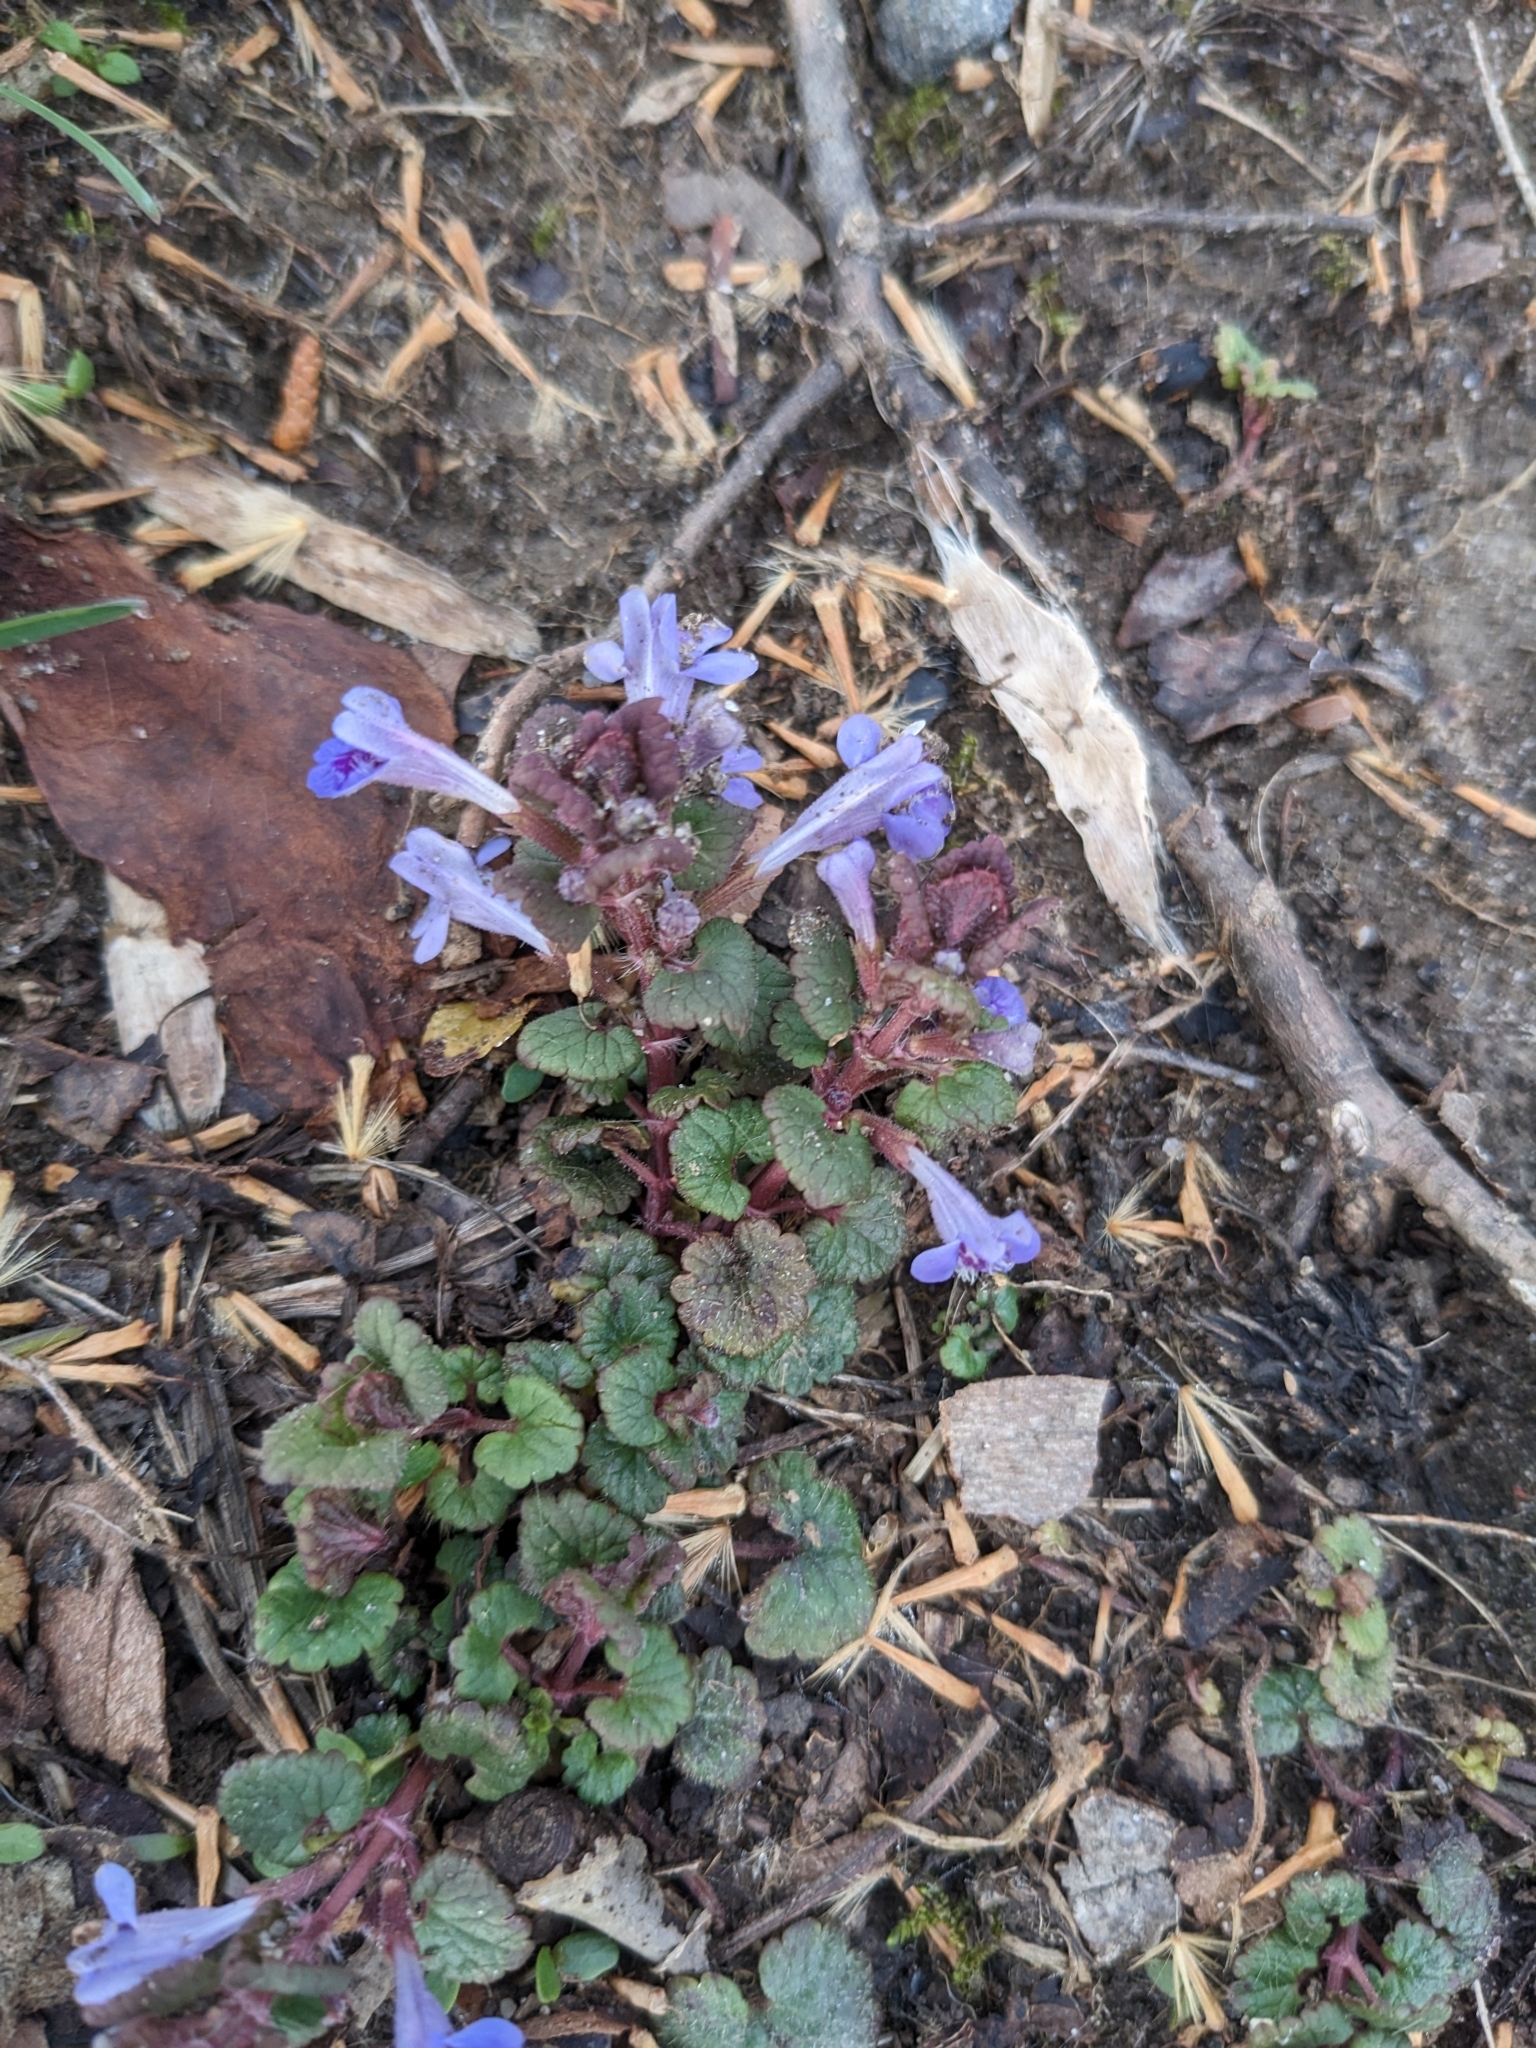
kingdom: Plantae
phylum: Tracheophyta
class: Magnoliopsida
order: Lamiales
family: Lamiaceae
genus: Glechoma
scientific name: Glechoma hederacea
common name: Ground ivy
